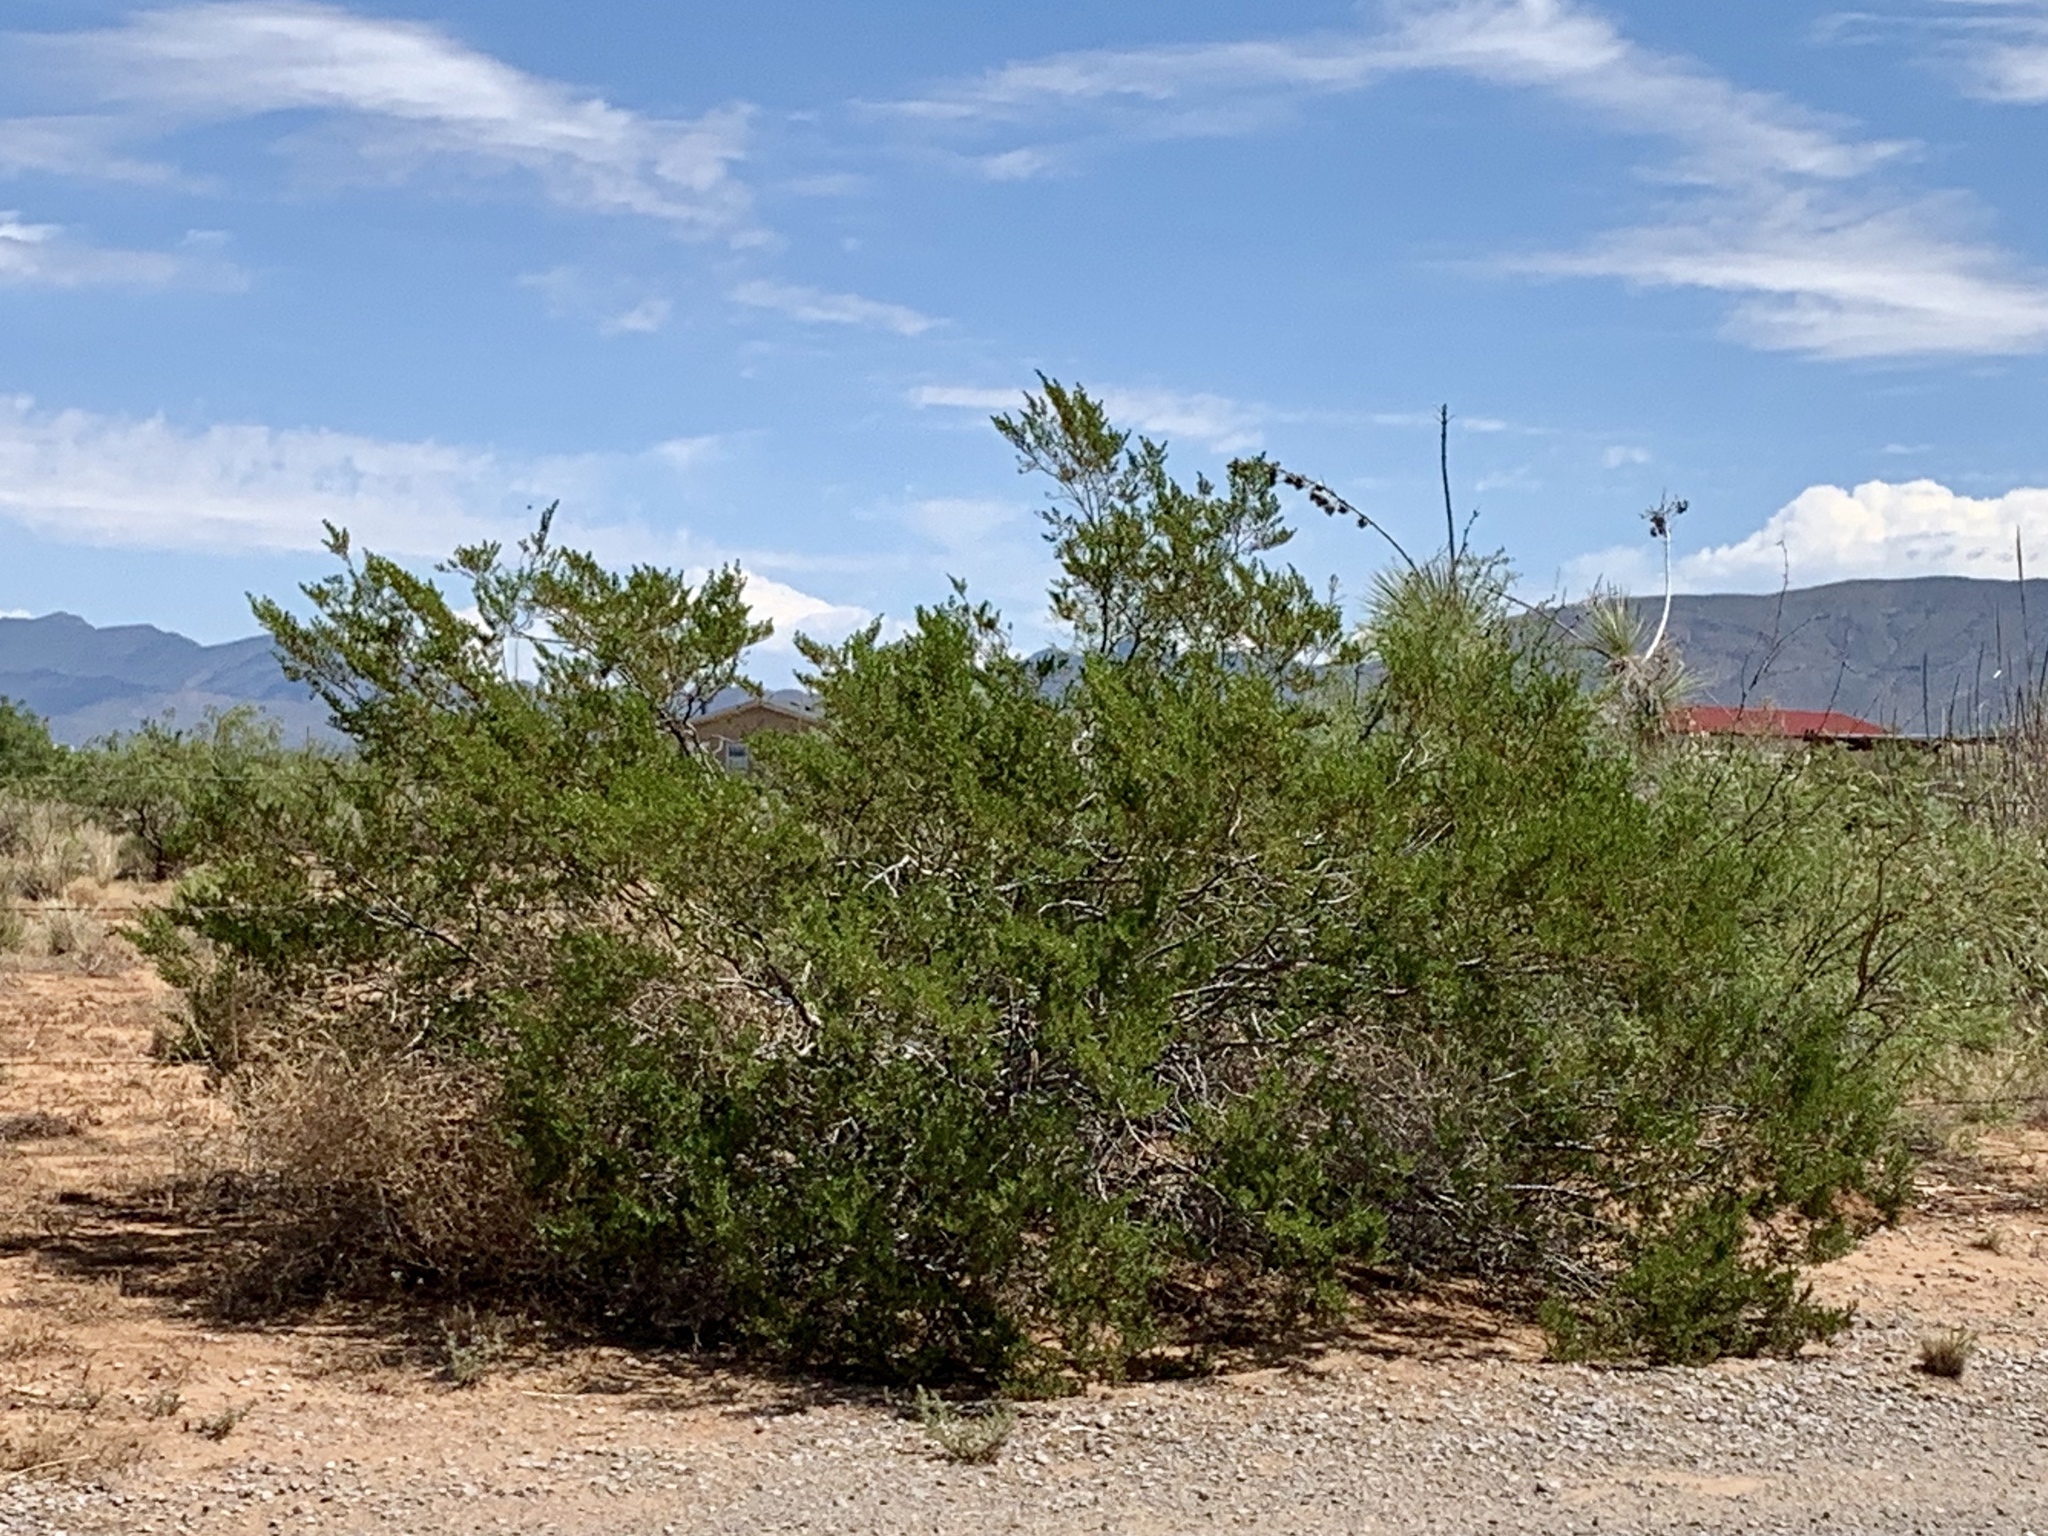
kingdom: Plantae
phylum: Tracheophyta
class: Magnoliopsida
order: Zygophyllales
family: Zygophyllaceae
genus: Larrea
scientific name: Larrea tridentata
